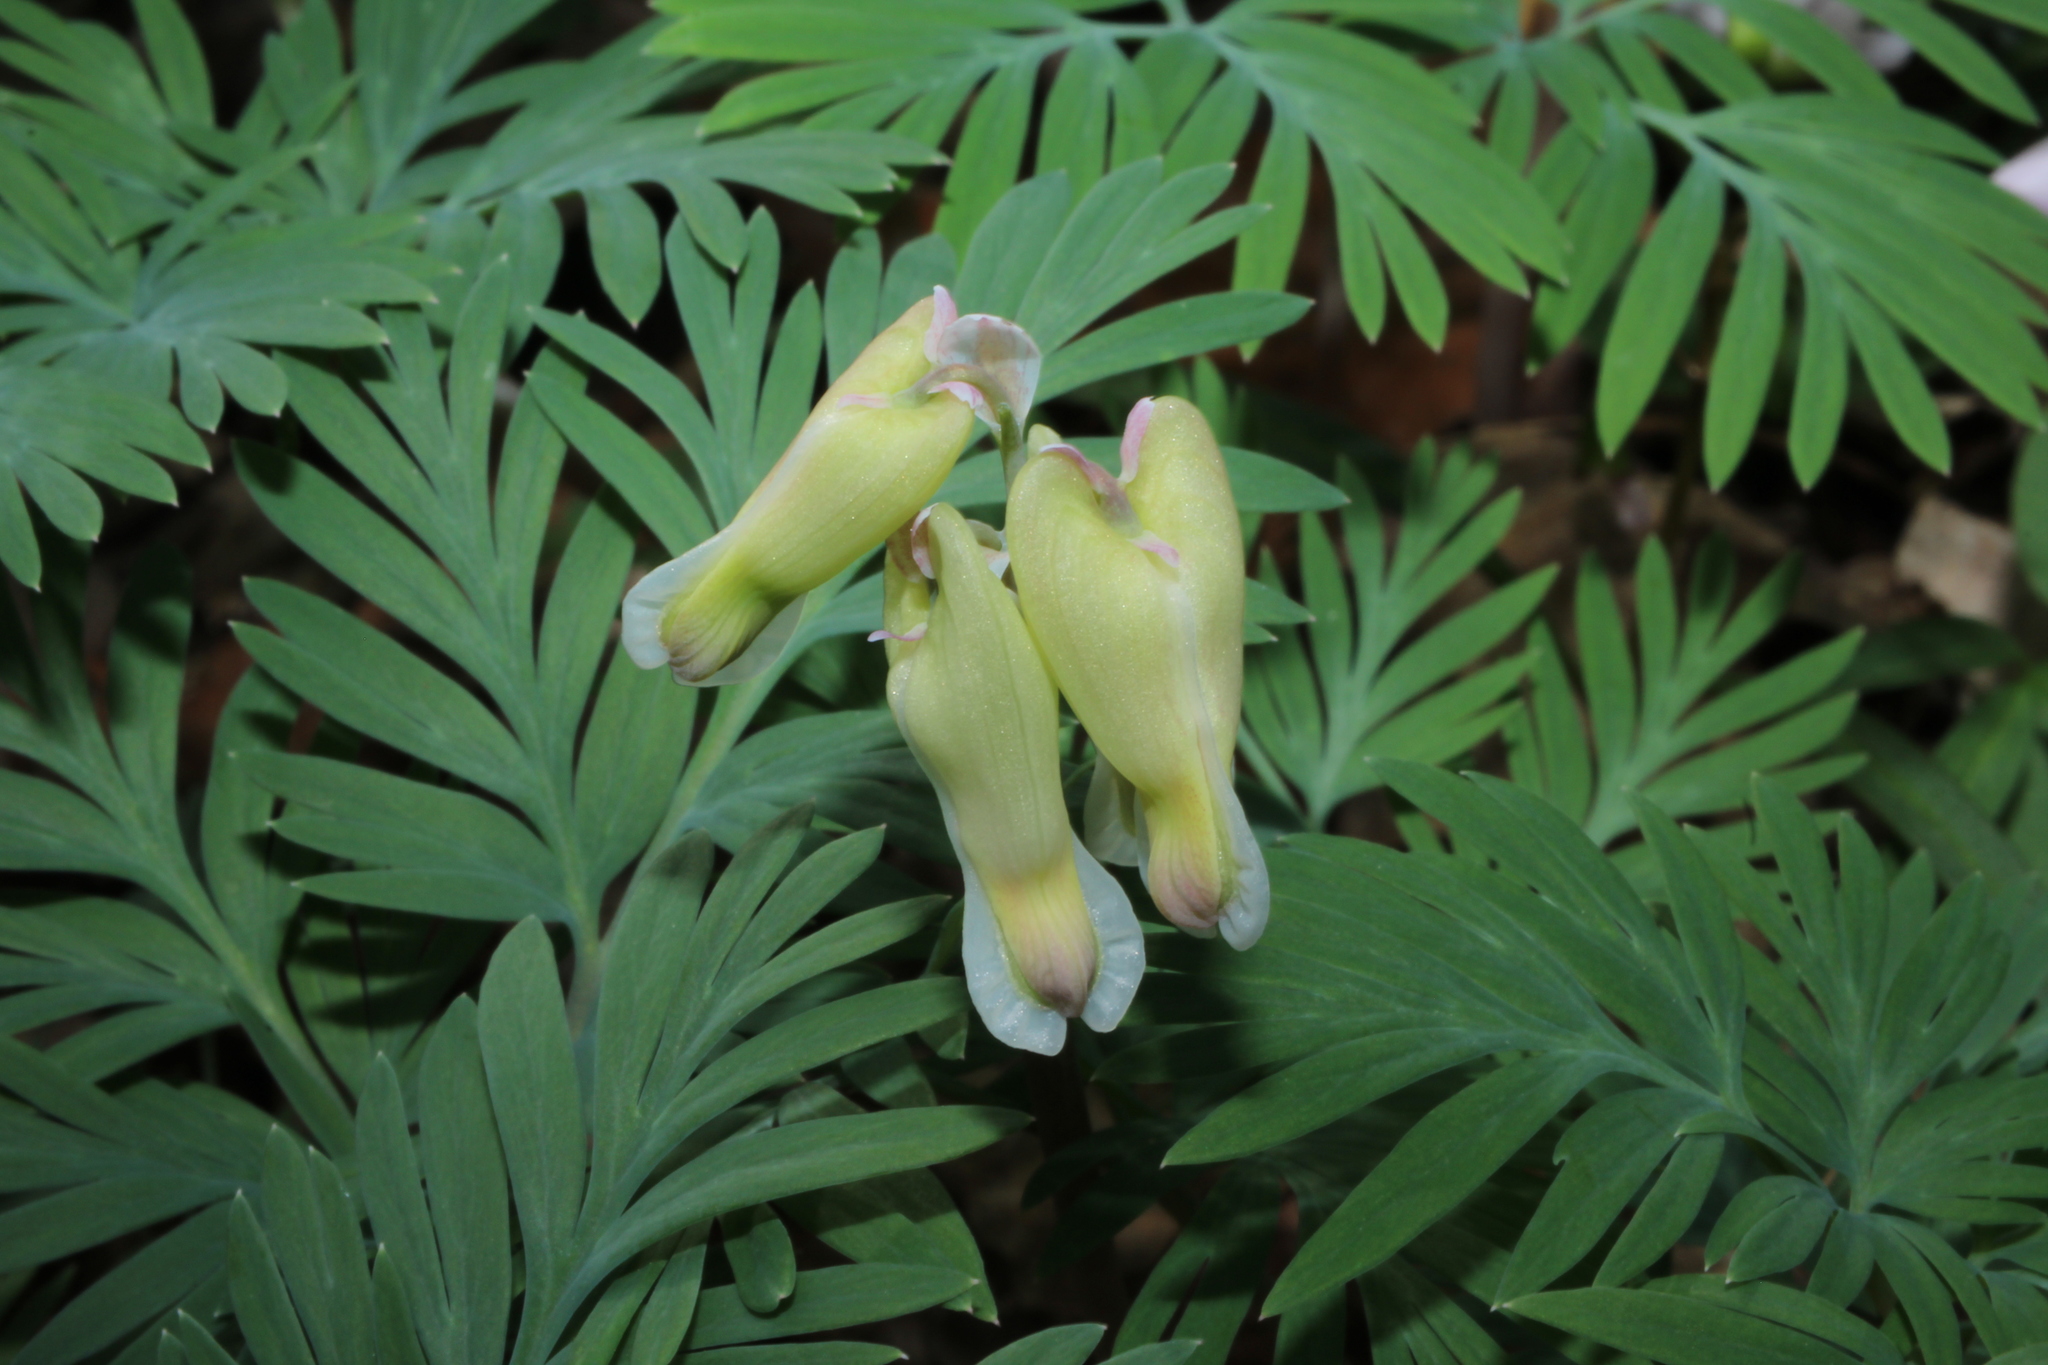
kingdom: Plantae
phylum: Tracheophyta
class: Magnoliopsida
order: Ranunculales
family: Papaveraceae
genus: Dicentra
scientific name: Dicentra canadensis
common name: Squirrel-corn
